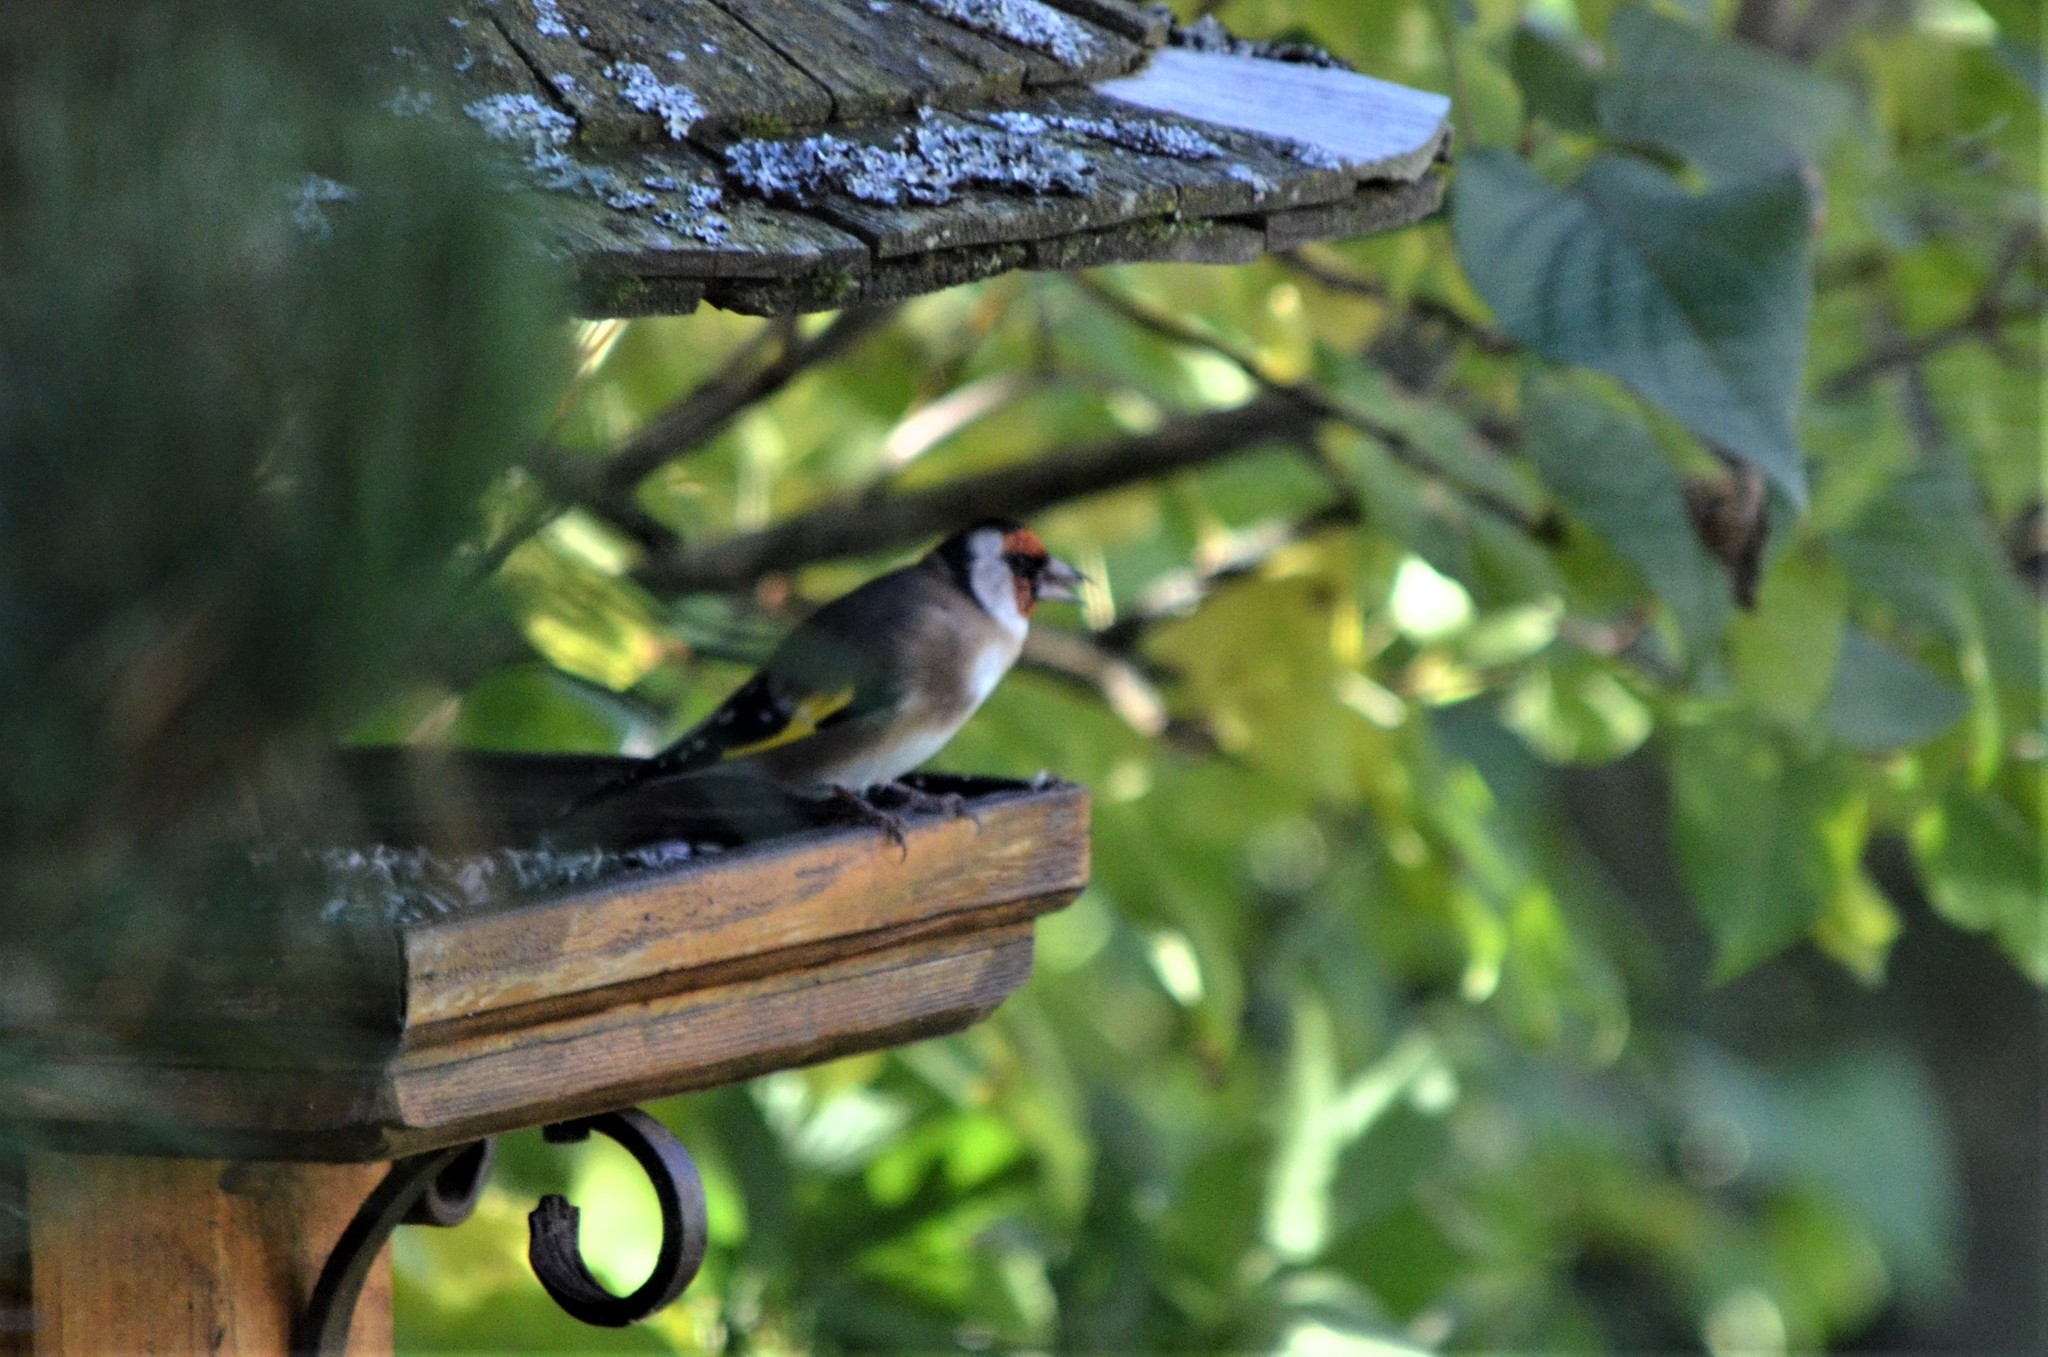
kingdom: Animalia
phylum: Chordata
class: Aves
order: Passeriformes
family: Fringillidae
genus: Carduelis
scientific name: Carduelis carduelis
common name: European goldfinch
